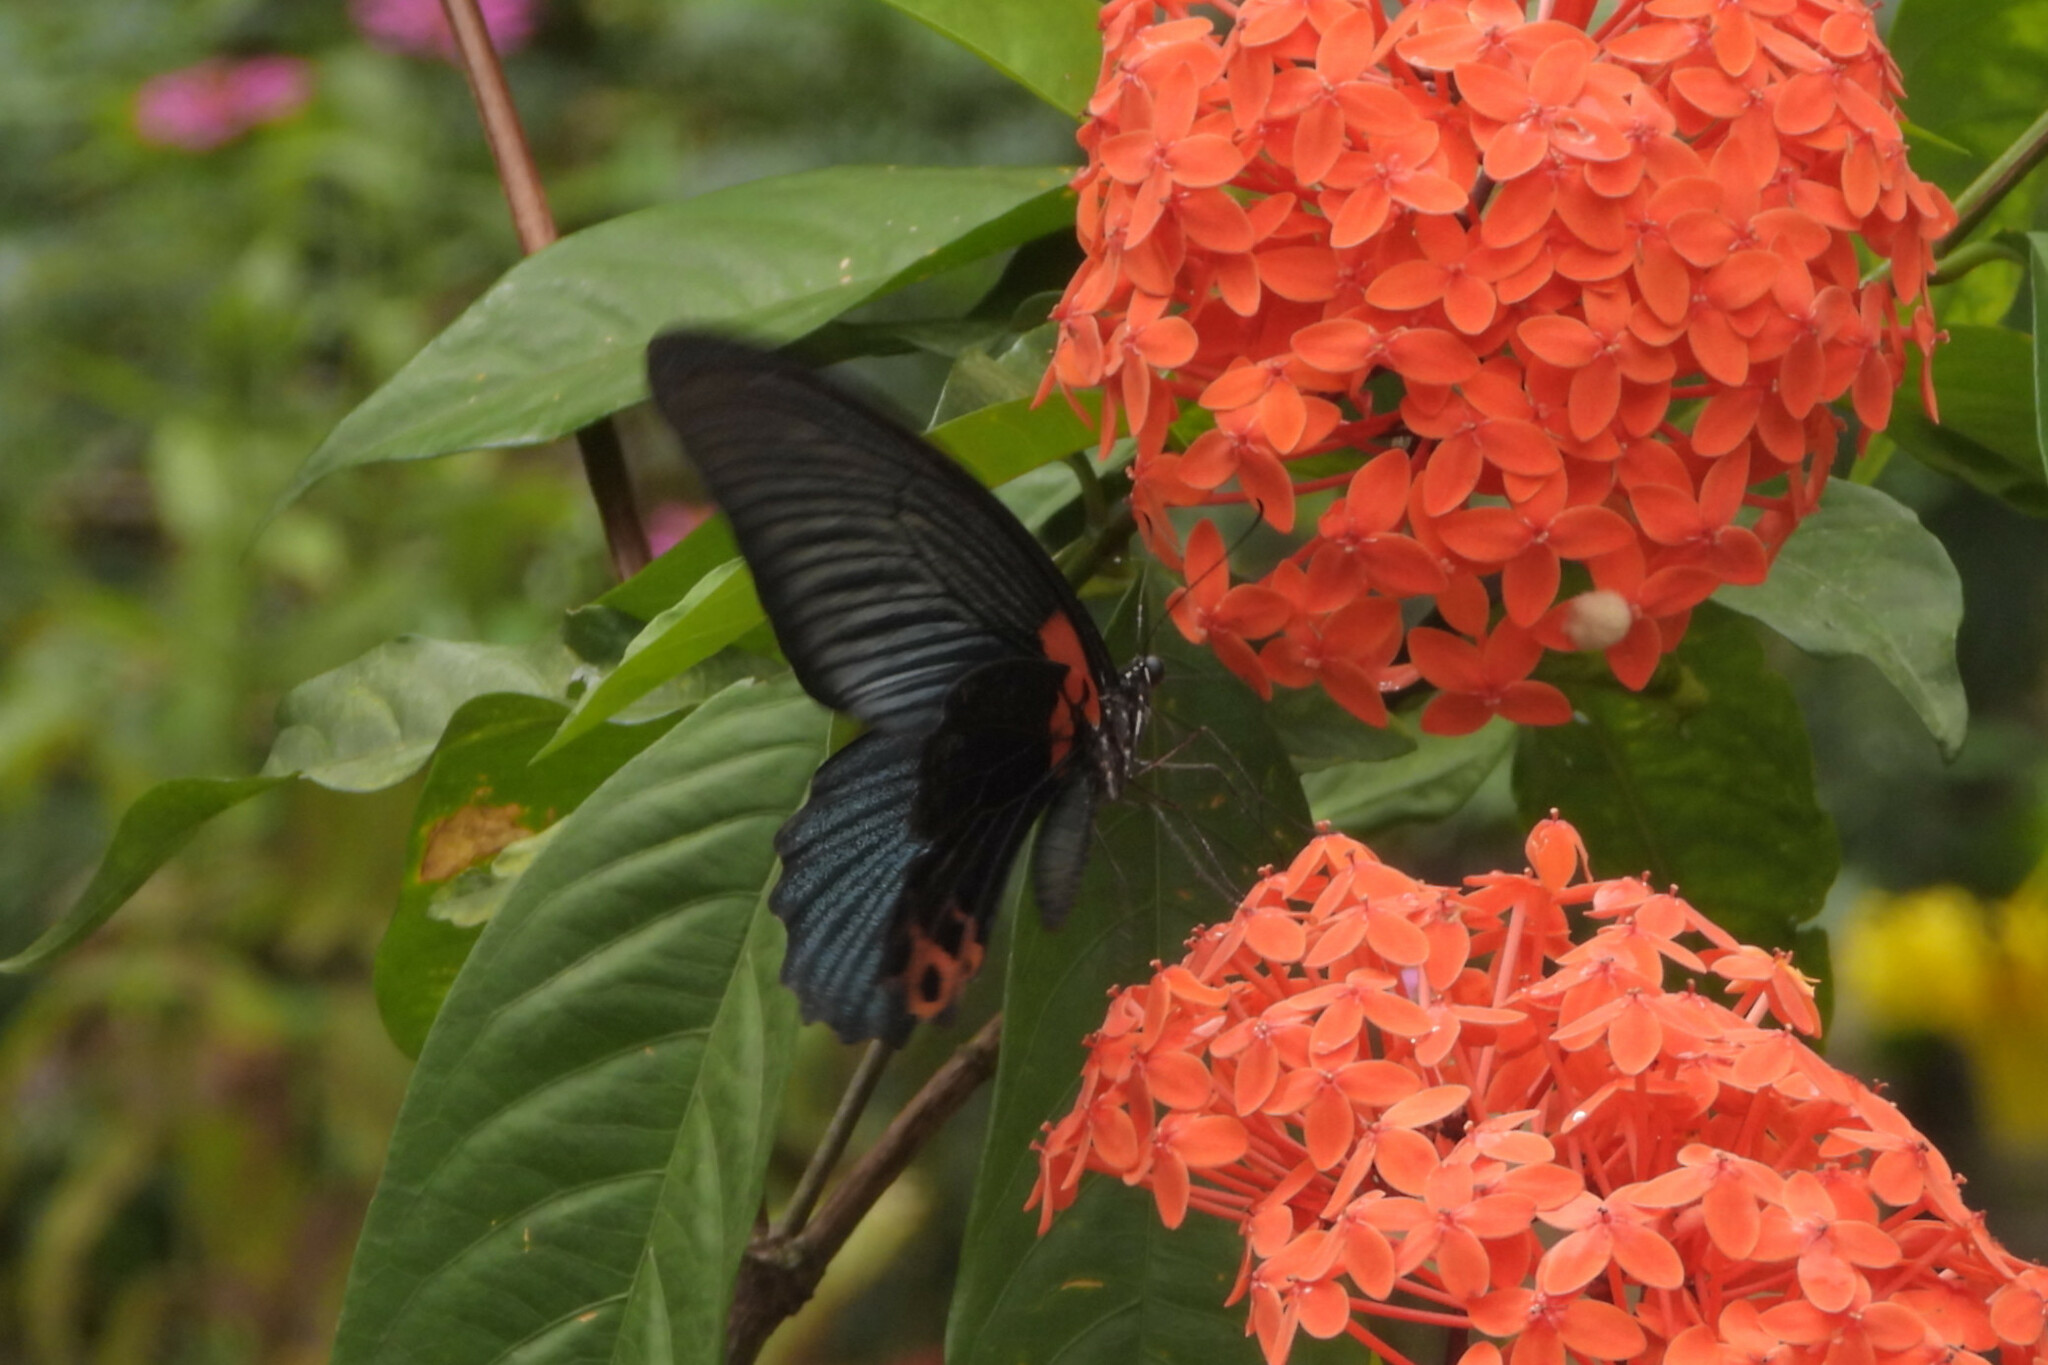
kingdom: Animalia
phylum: Arthropoda
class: Insecta
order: Lepidoptera
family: Papilionidae
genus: Papilio
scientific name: Papilio memnon
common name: Great mormon
